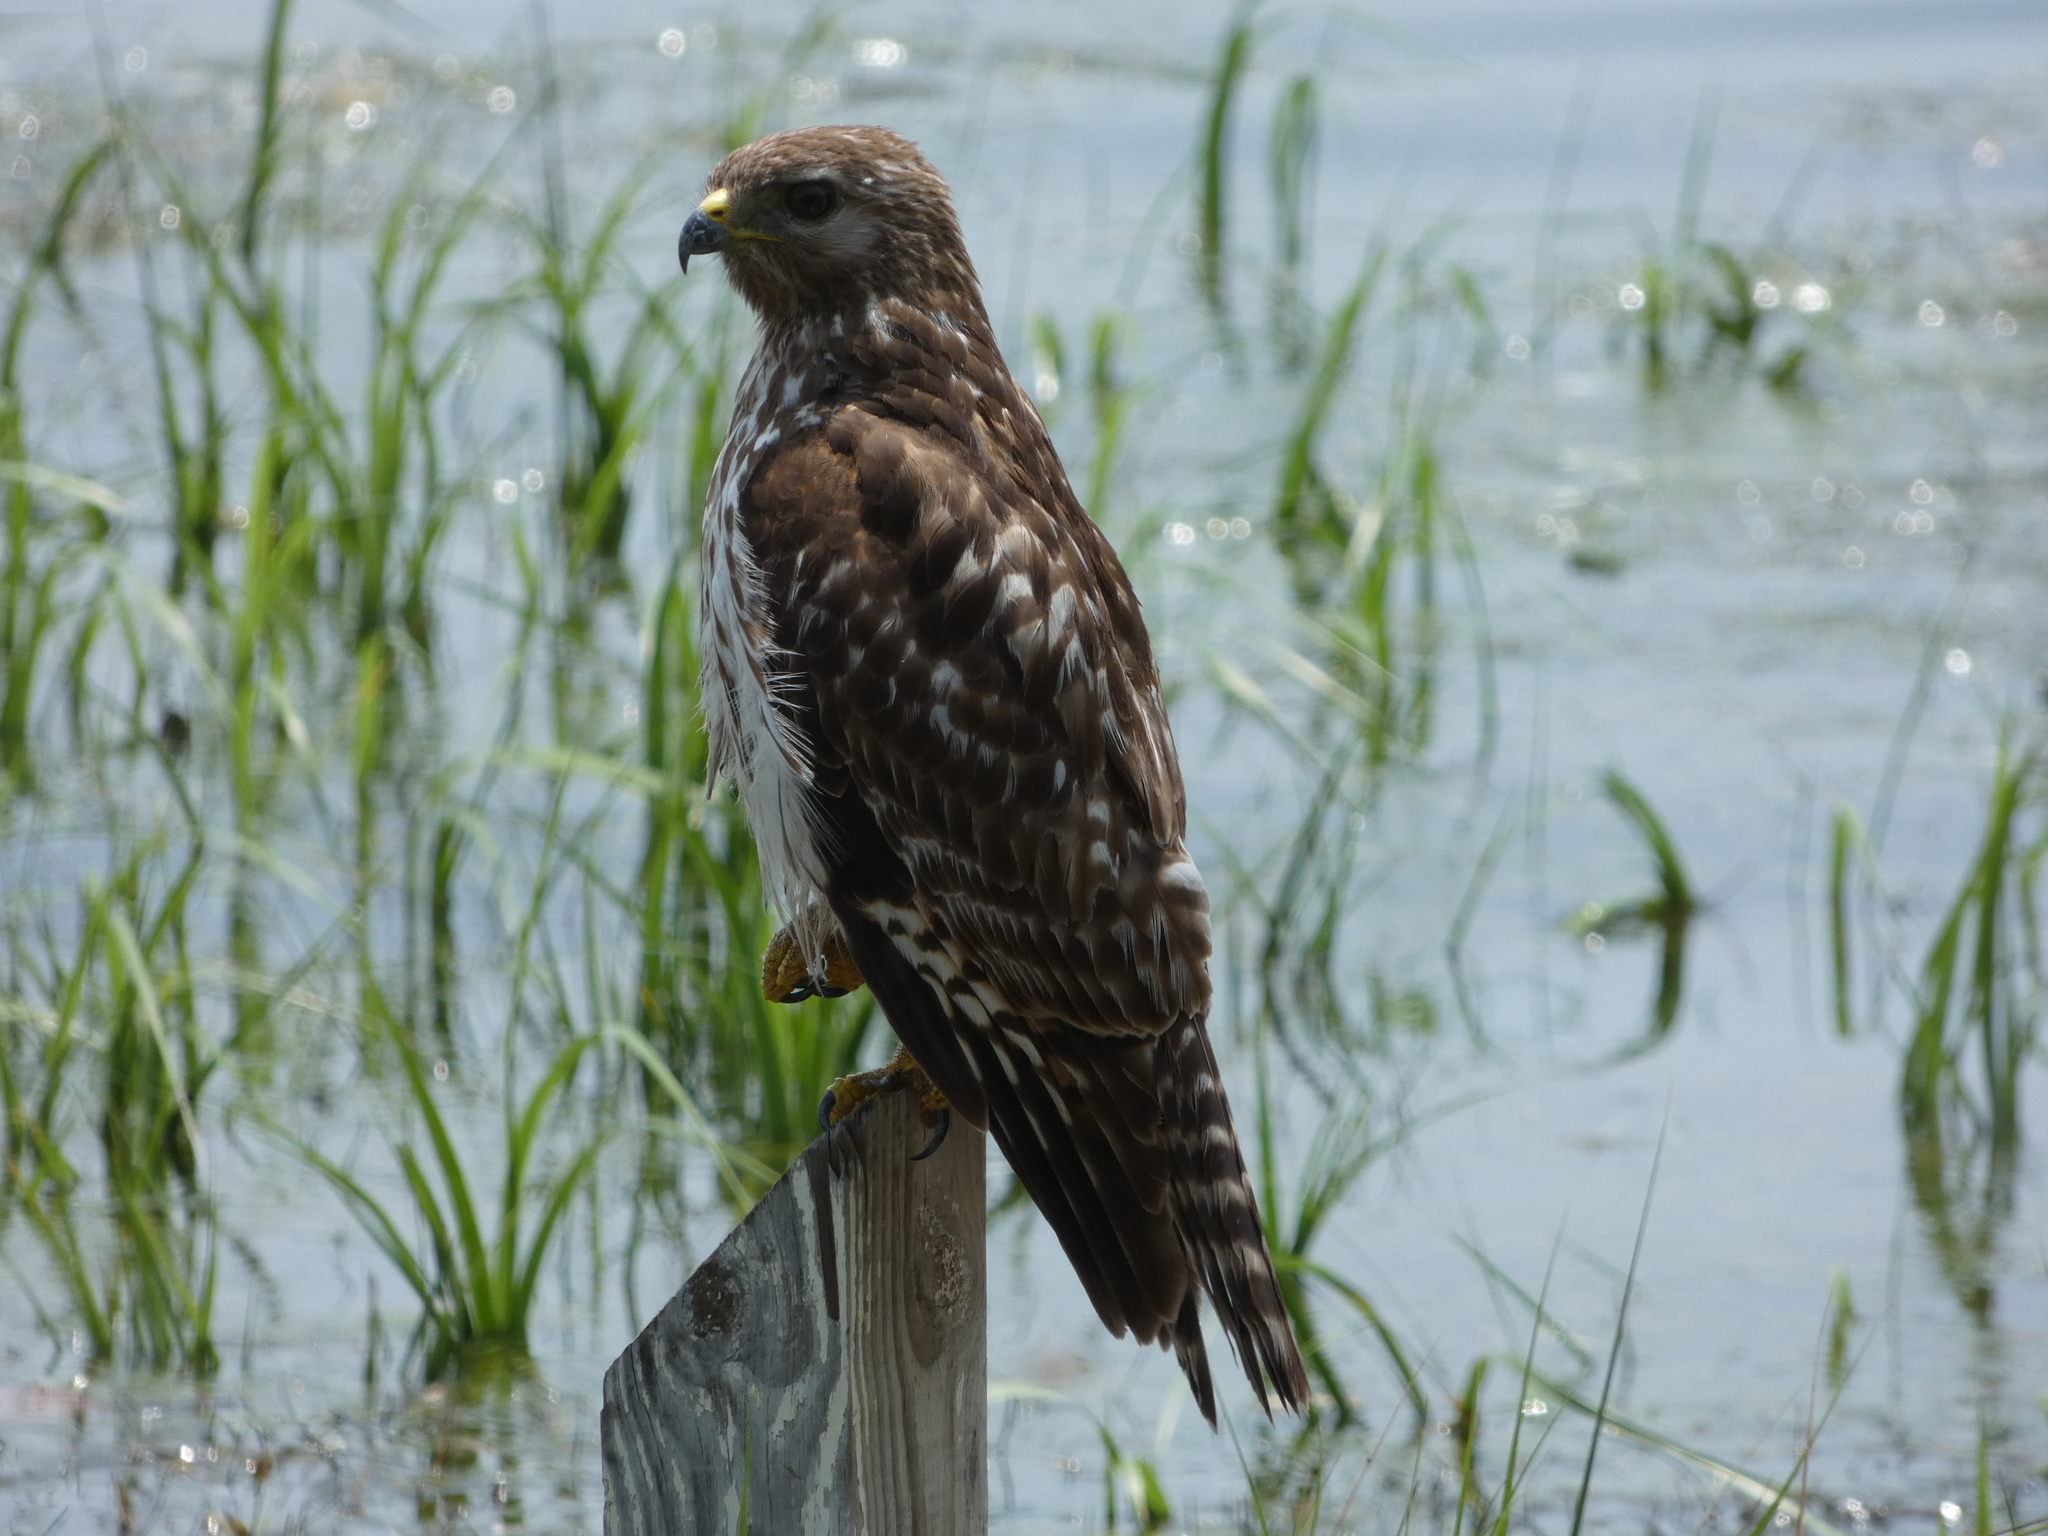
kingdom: Animalia
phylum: Chordata
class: Aves
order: Accipitriformes
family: Accipitridae
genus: Buteo
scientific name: Buteo lineatus
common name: Red-shouldered hawk
